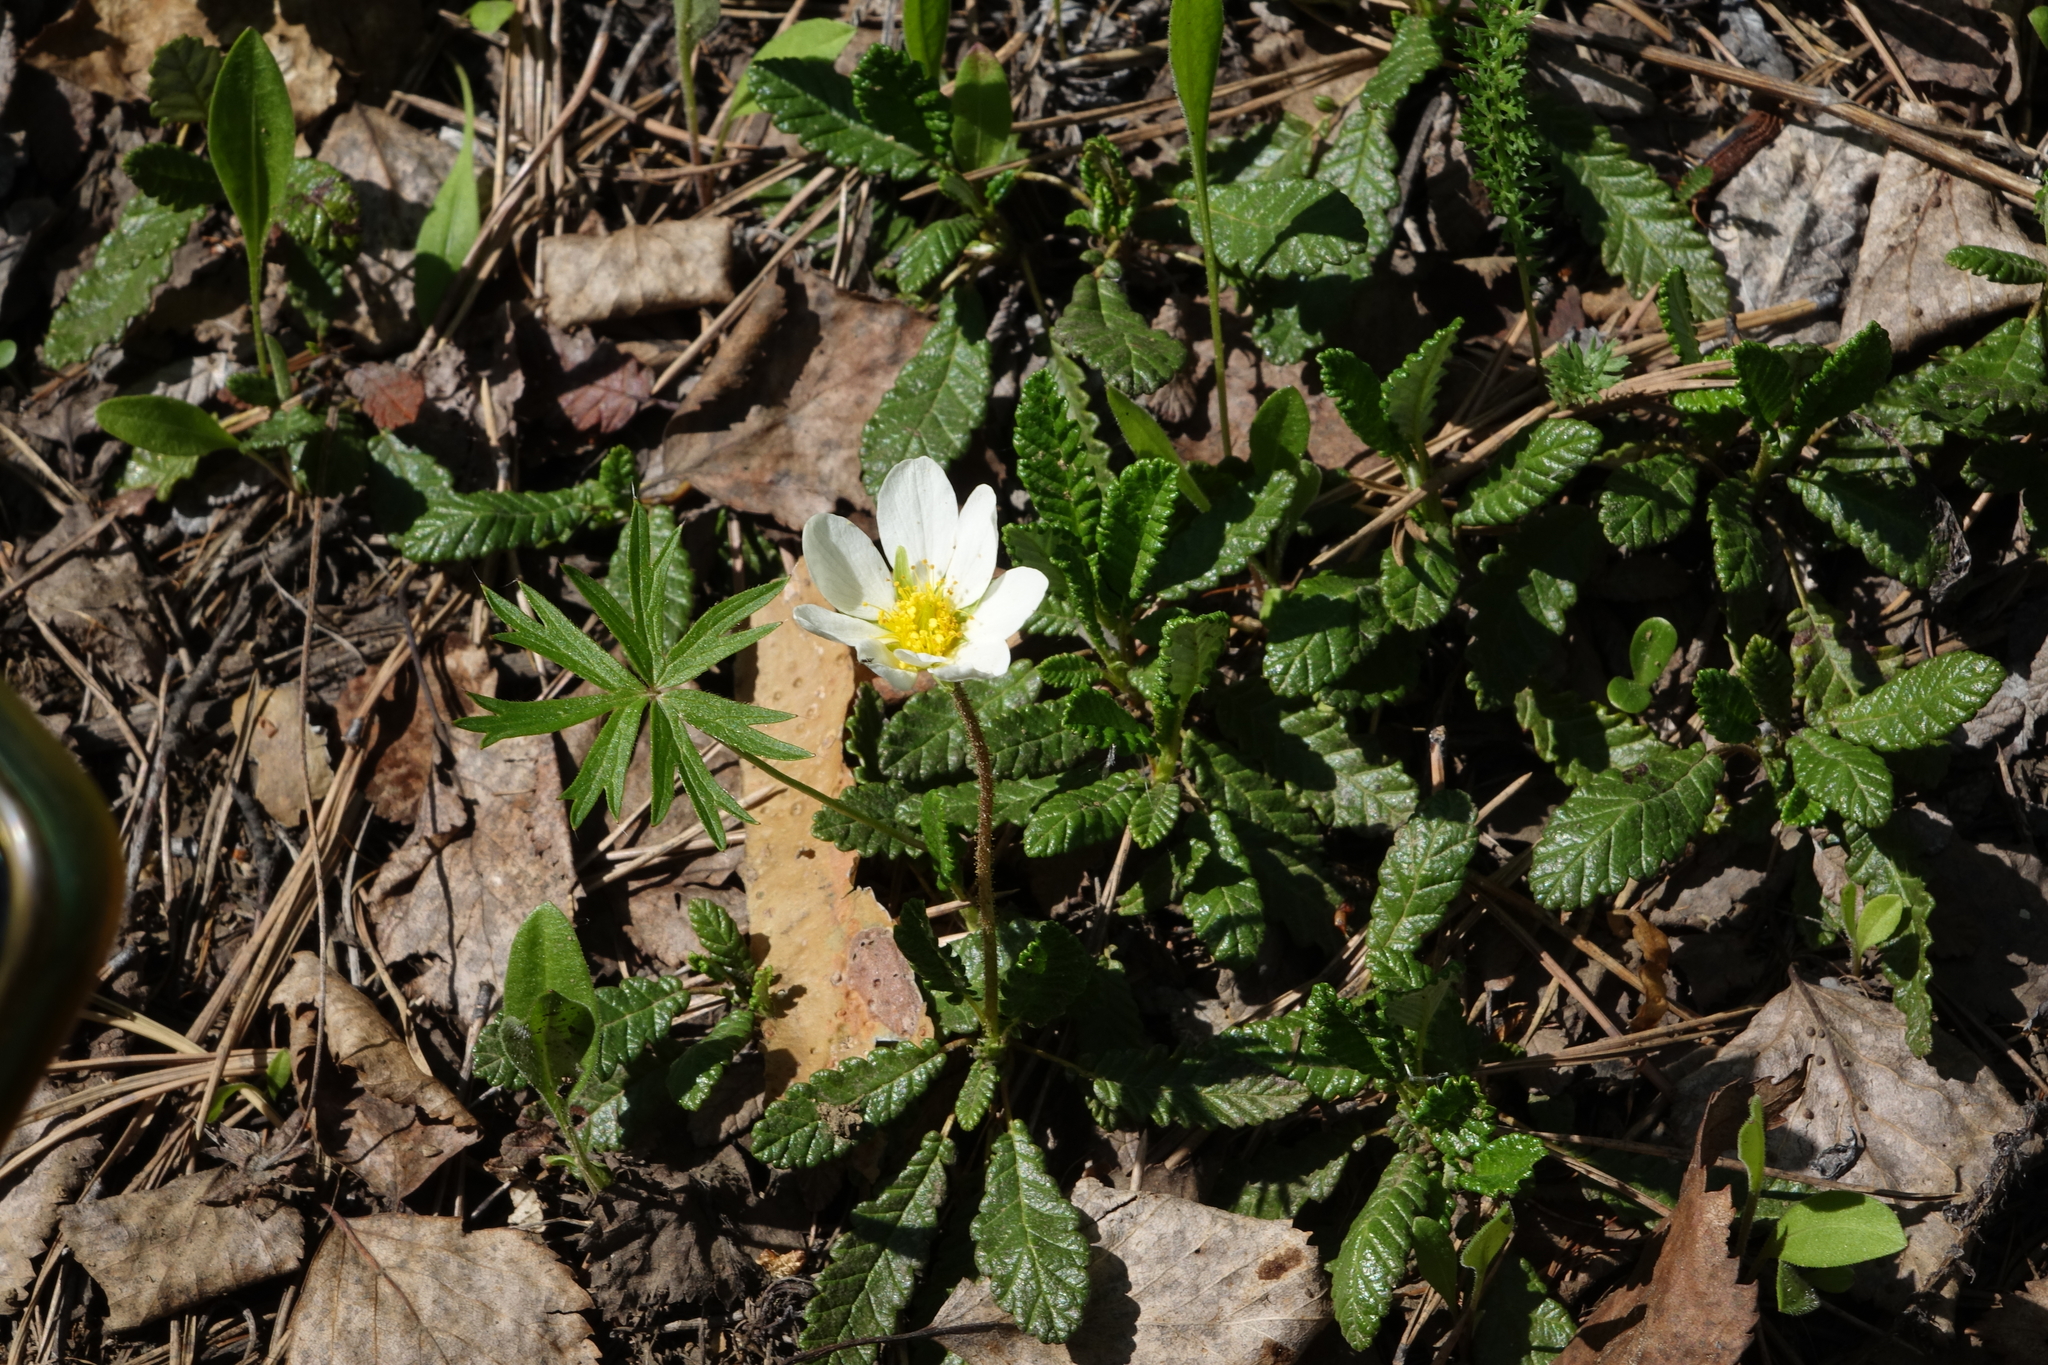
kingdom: Plantae
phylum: Tracheophyta
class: Magnoliopsida
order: Rosales
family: Rosaceae
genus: Dryas
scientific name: Dryas octopetala
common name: Eight-petal mountain-avens
